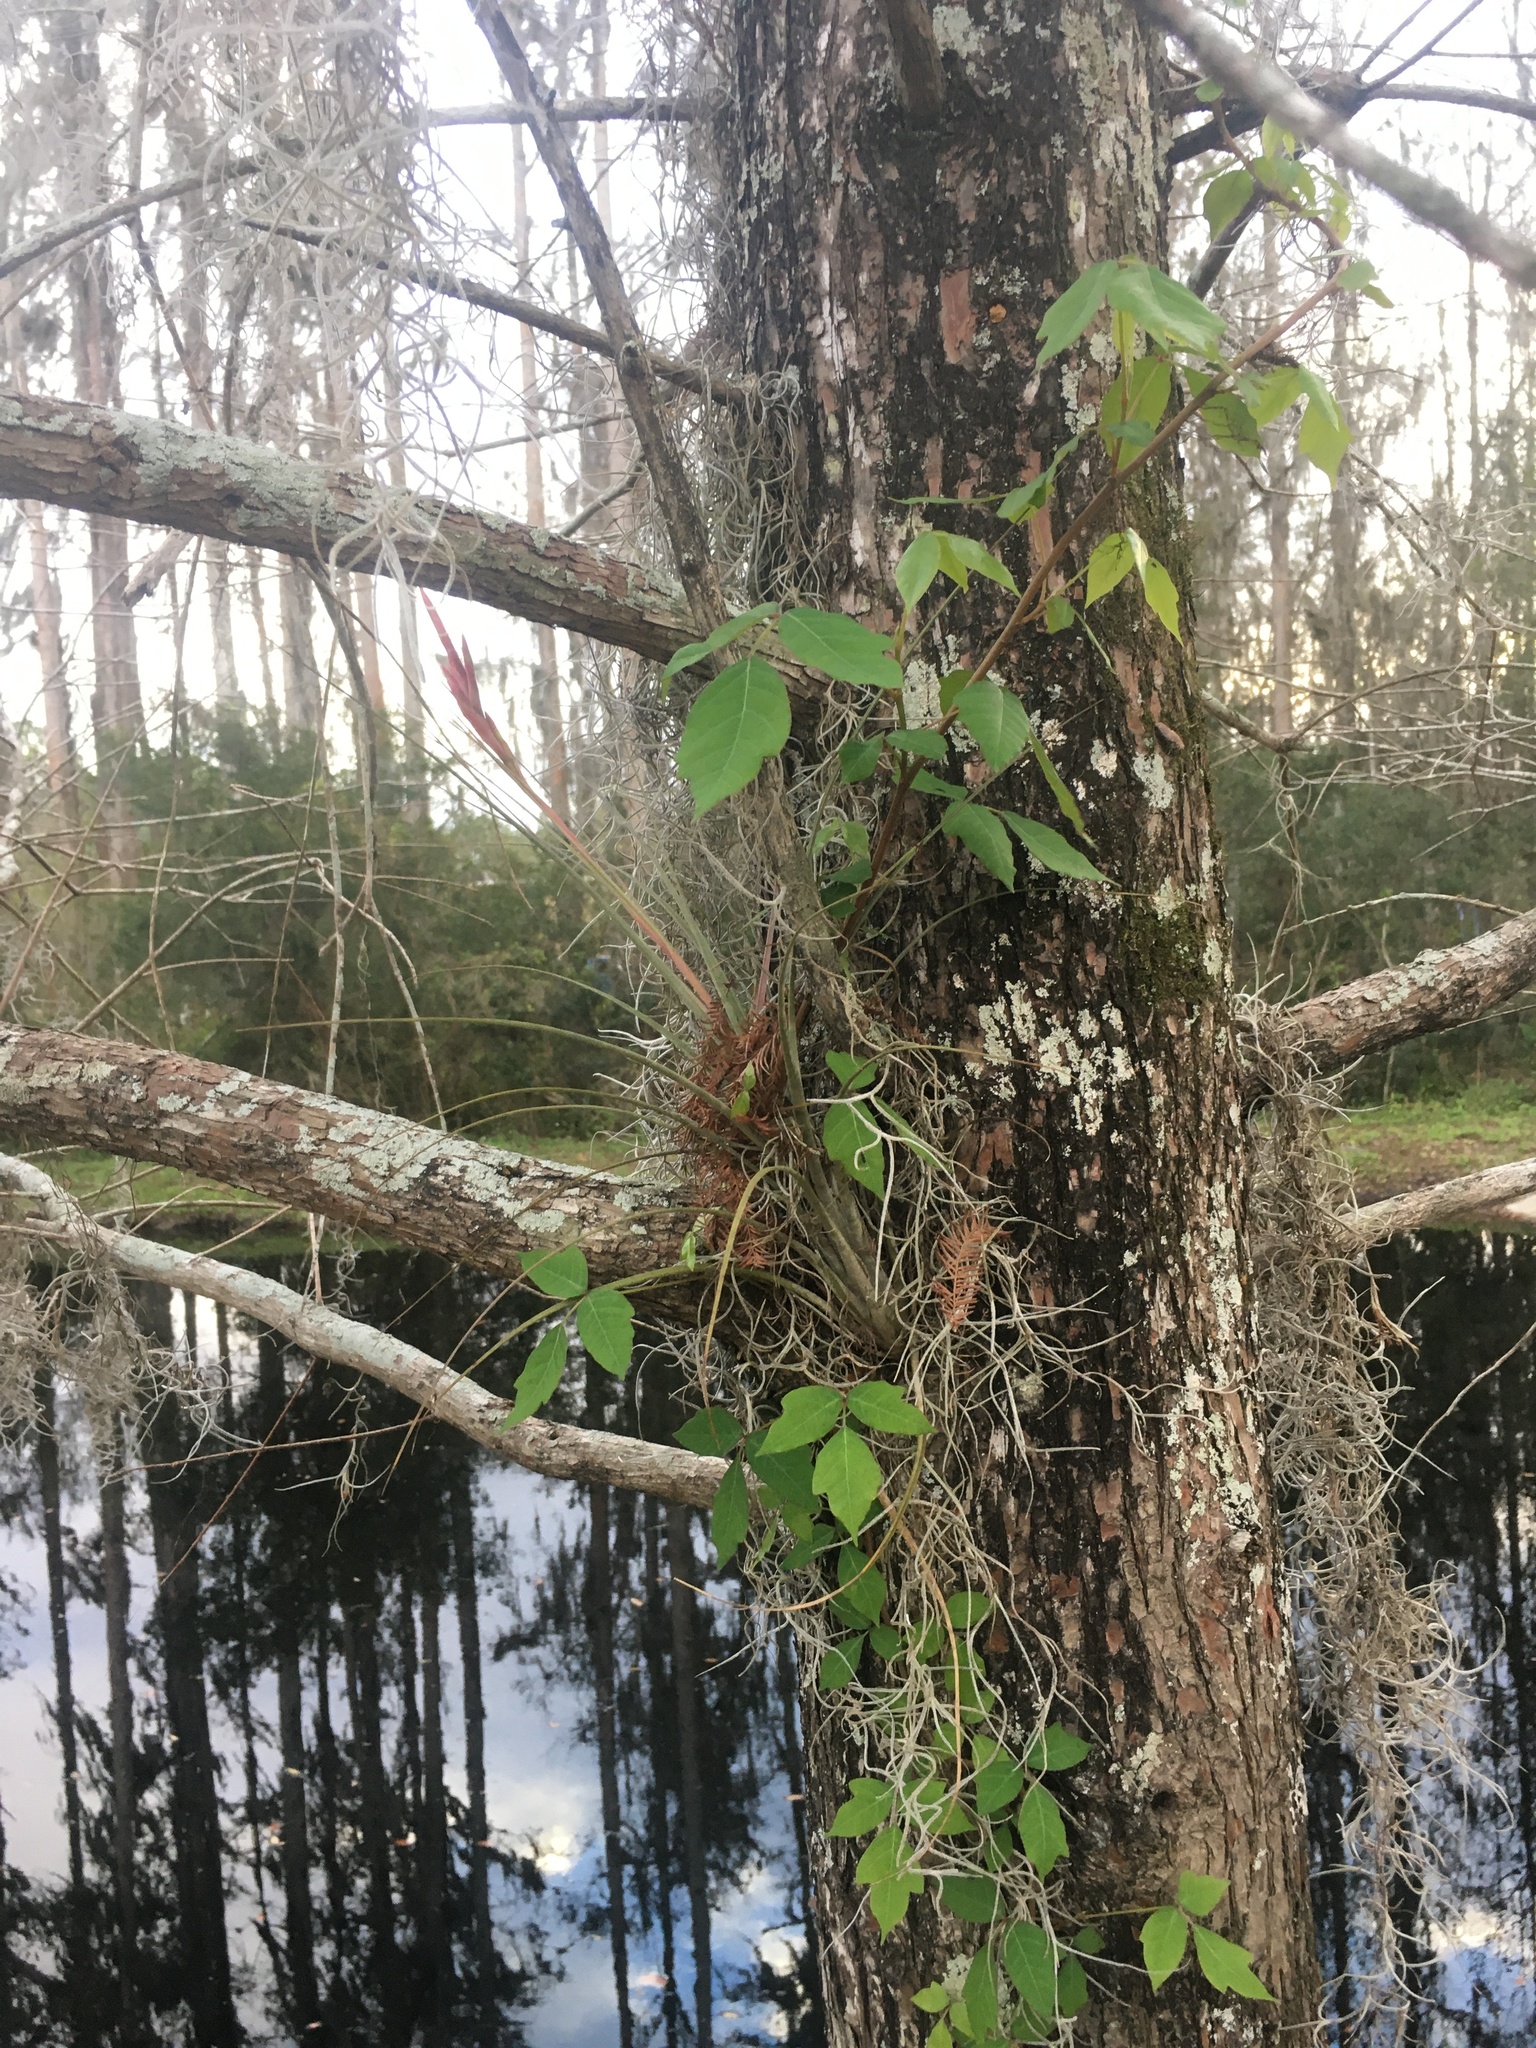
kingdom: Plantae
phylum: Tracheophyta
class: Magnoliopsida
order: Sapindales
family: Anacardiaceae
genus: Toxicodendron
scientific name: Toxicodendron radicans
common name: Poison ivy
